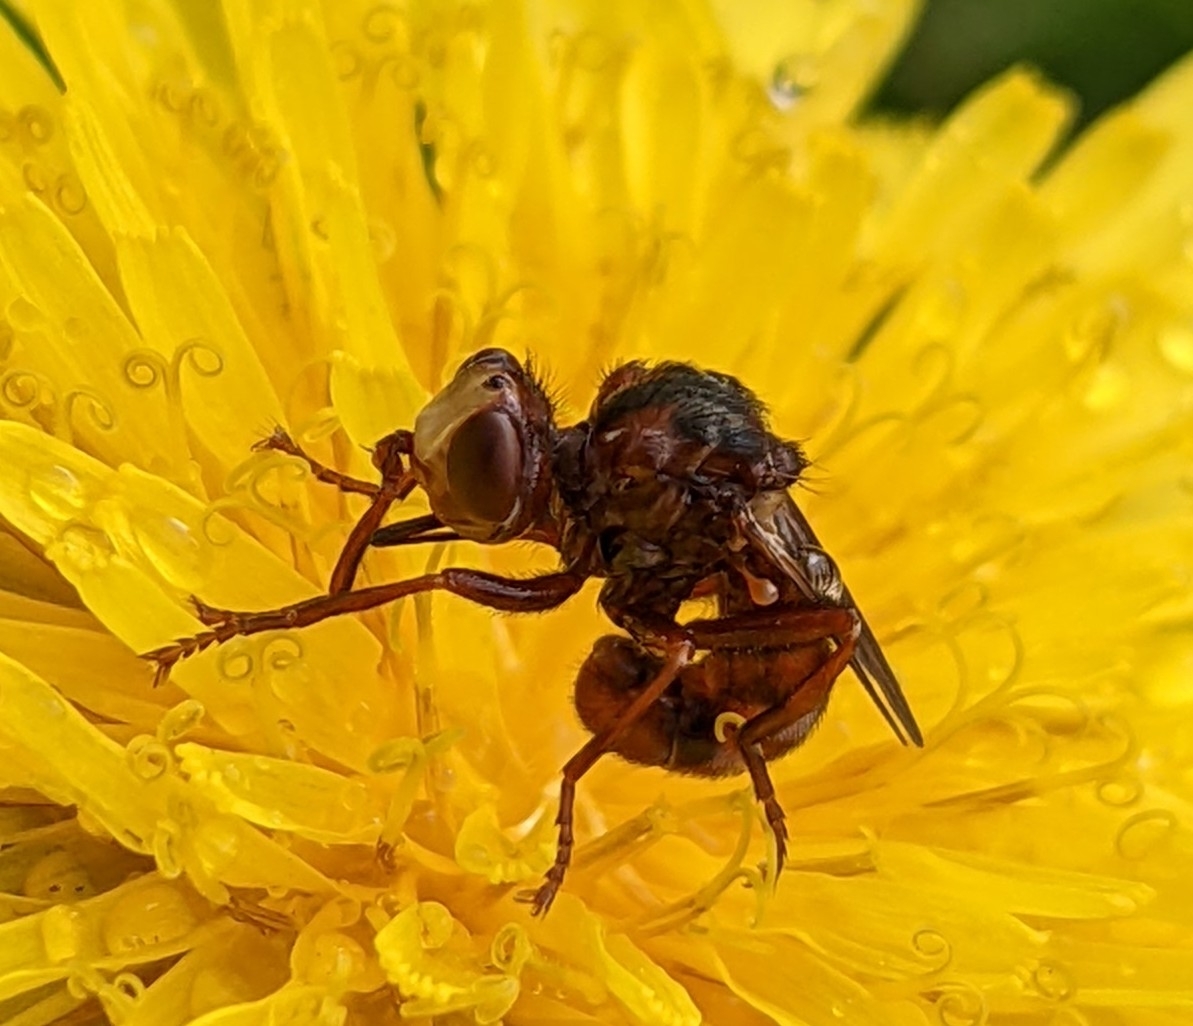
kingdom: Animalia
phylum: Arthropoda
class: Insecta
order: Diptera
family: Conopidae
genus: Sicus
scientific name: Sicus ferrugineus
